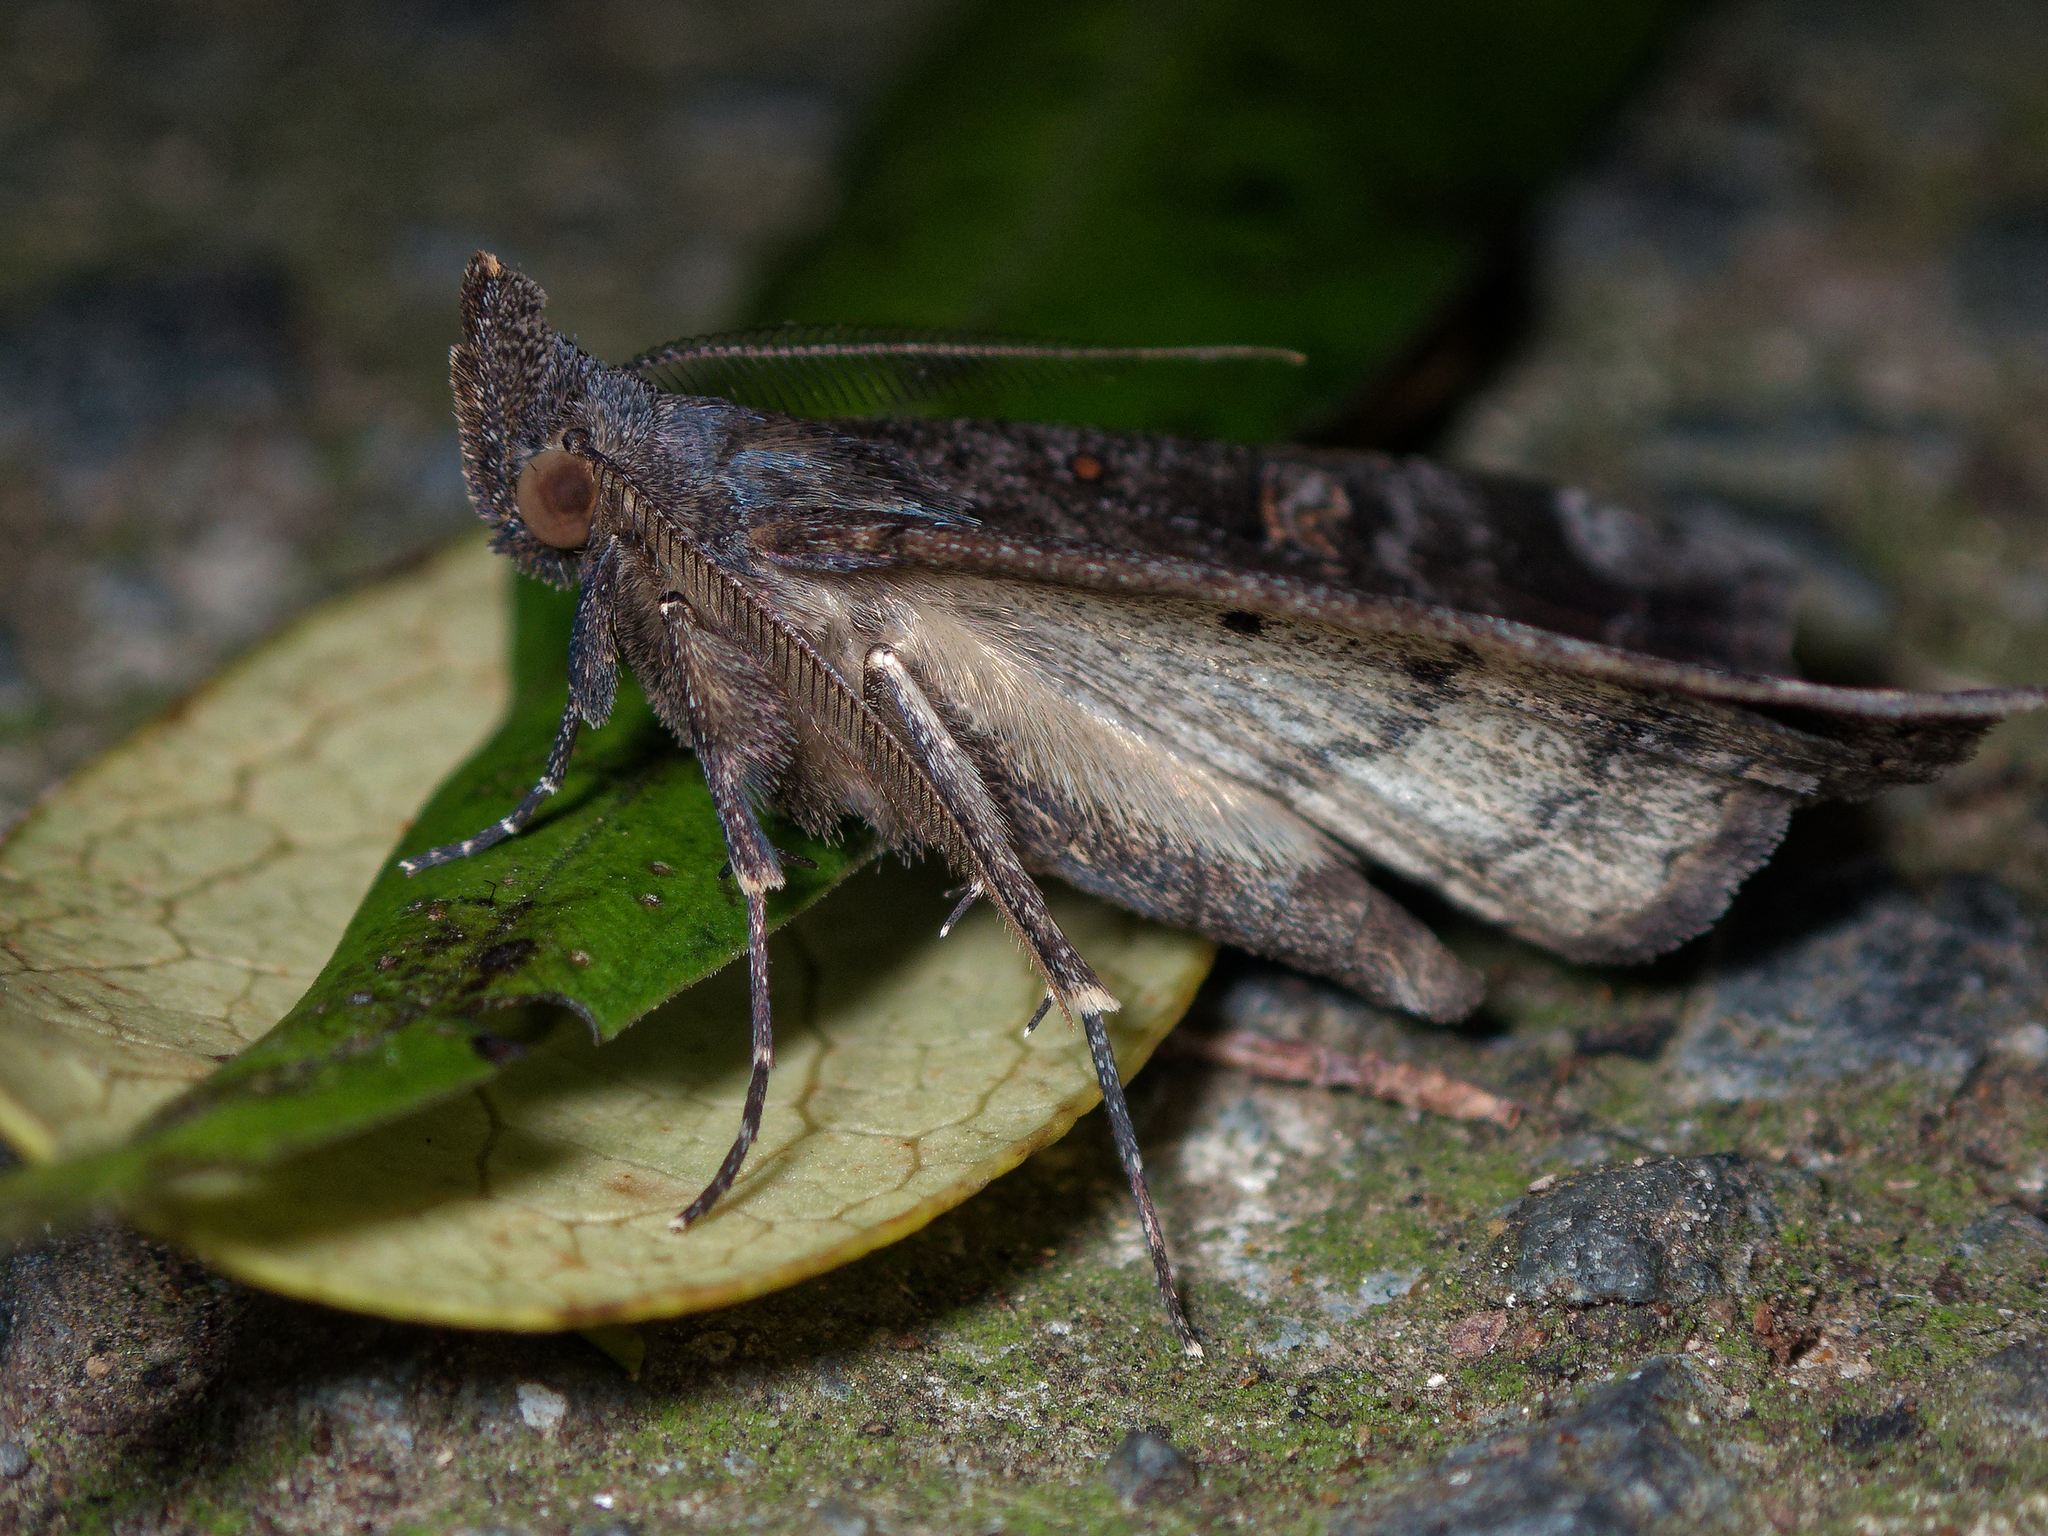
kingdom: Animalia
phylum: Arthropoda
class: Insecta
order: Lepidoptera
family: Erebidae
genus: Rhapsa
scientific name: Rhapsa scotosialis
